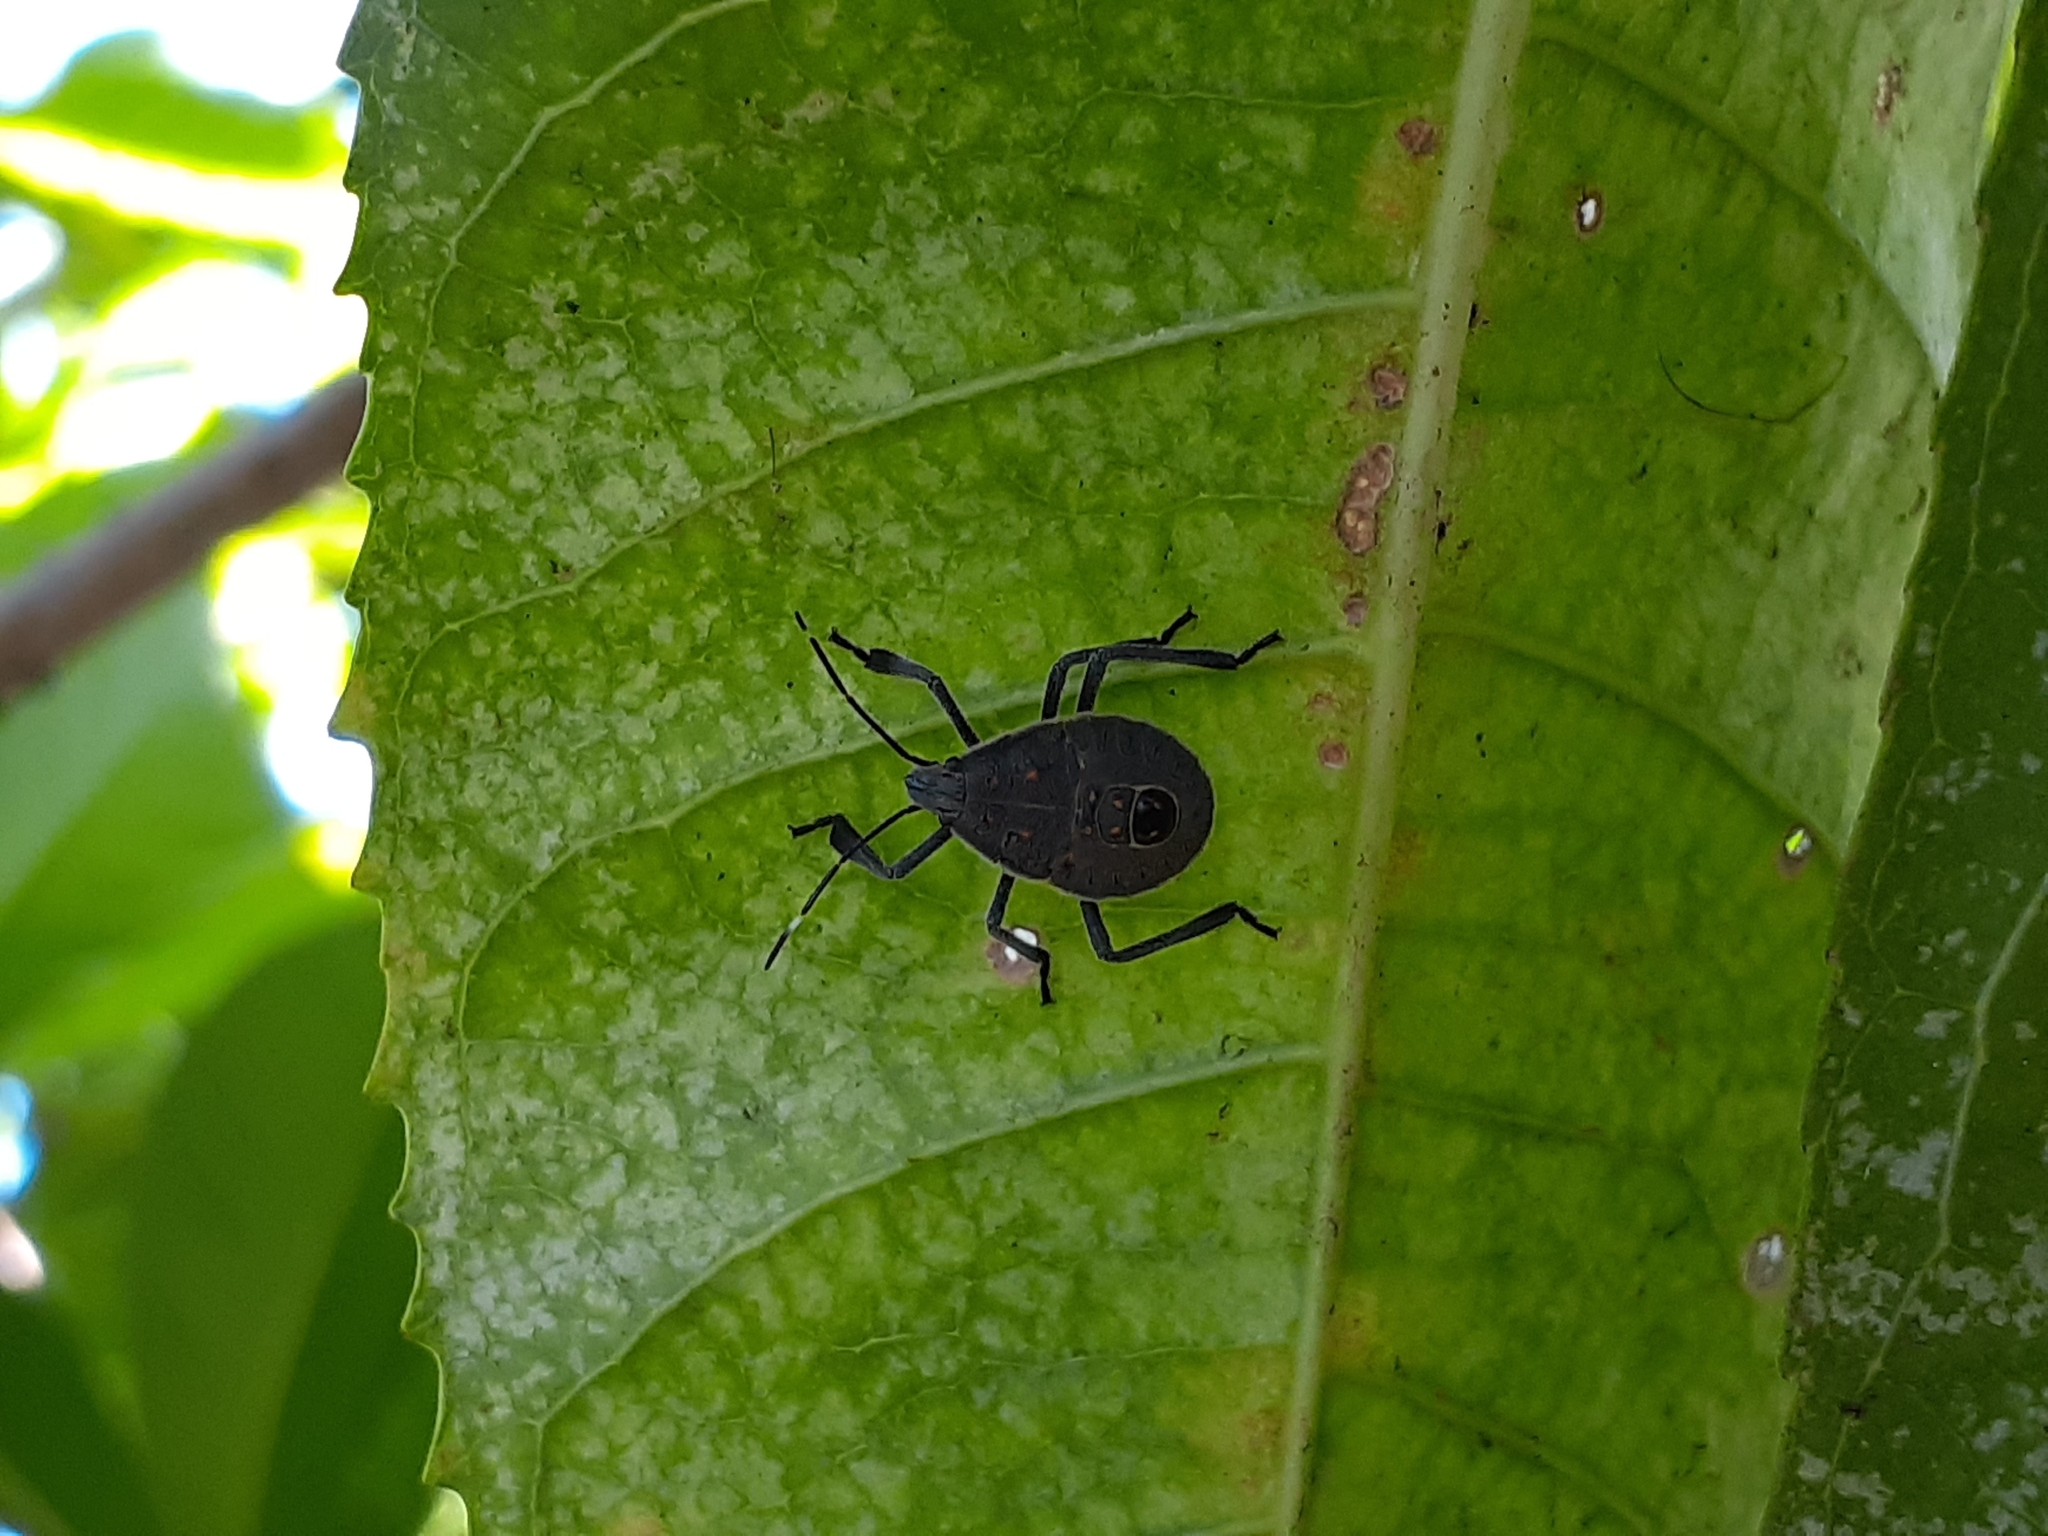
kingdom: Animalia
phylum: Arthropoda
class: Insecta
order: Hemiptera
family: Pentatomidae
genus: Erthesina
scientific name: Erthesina fullo
